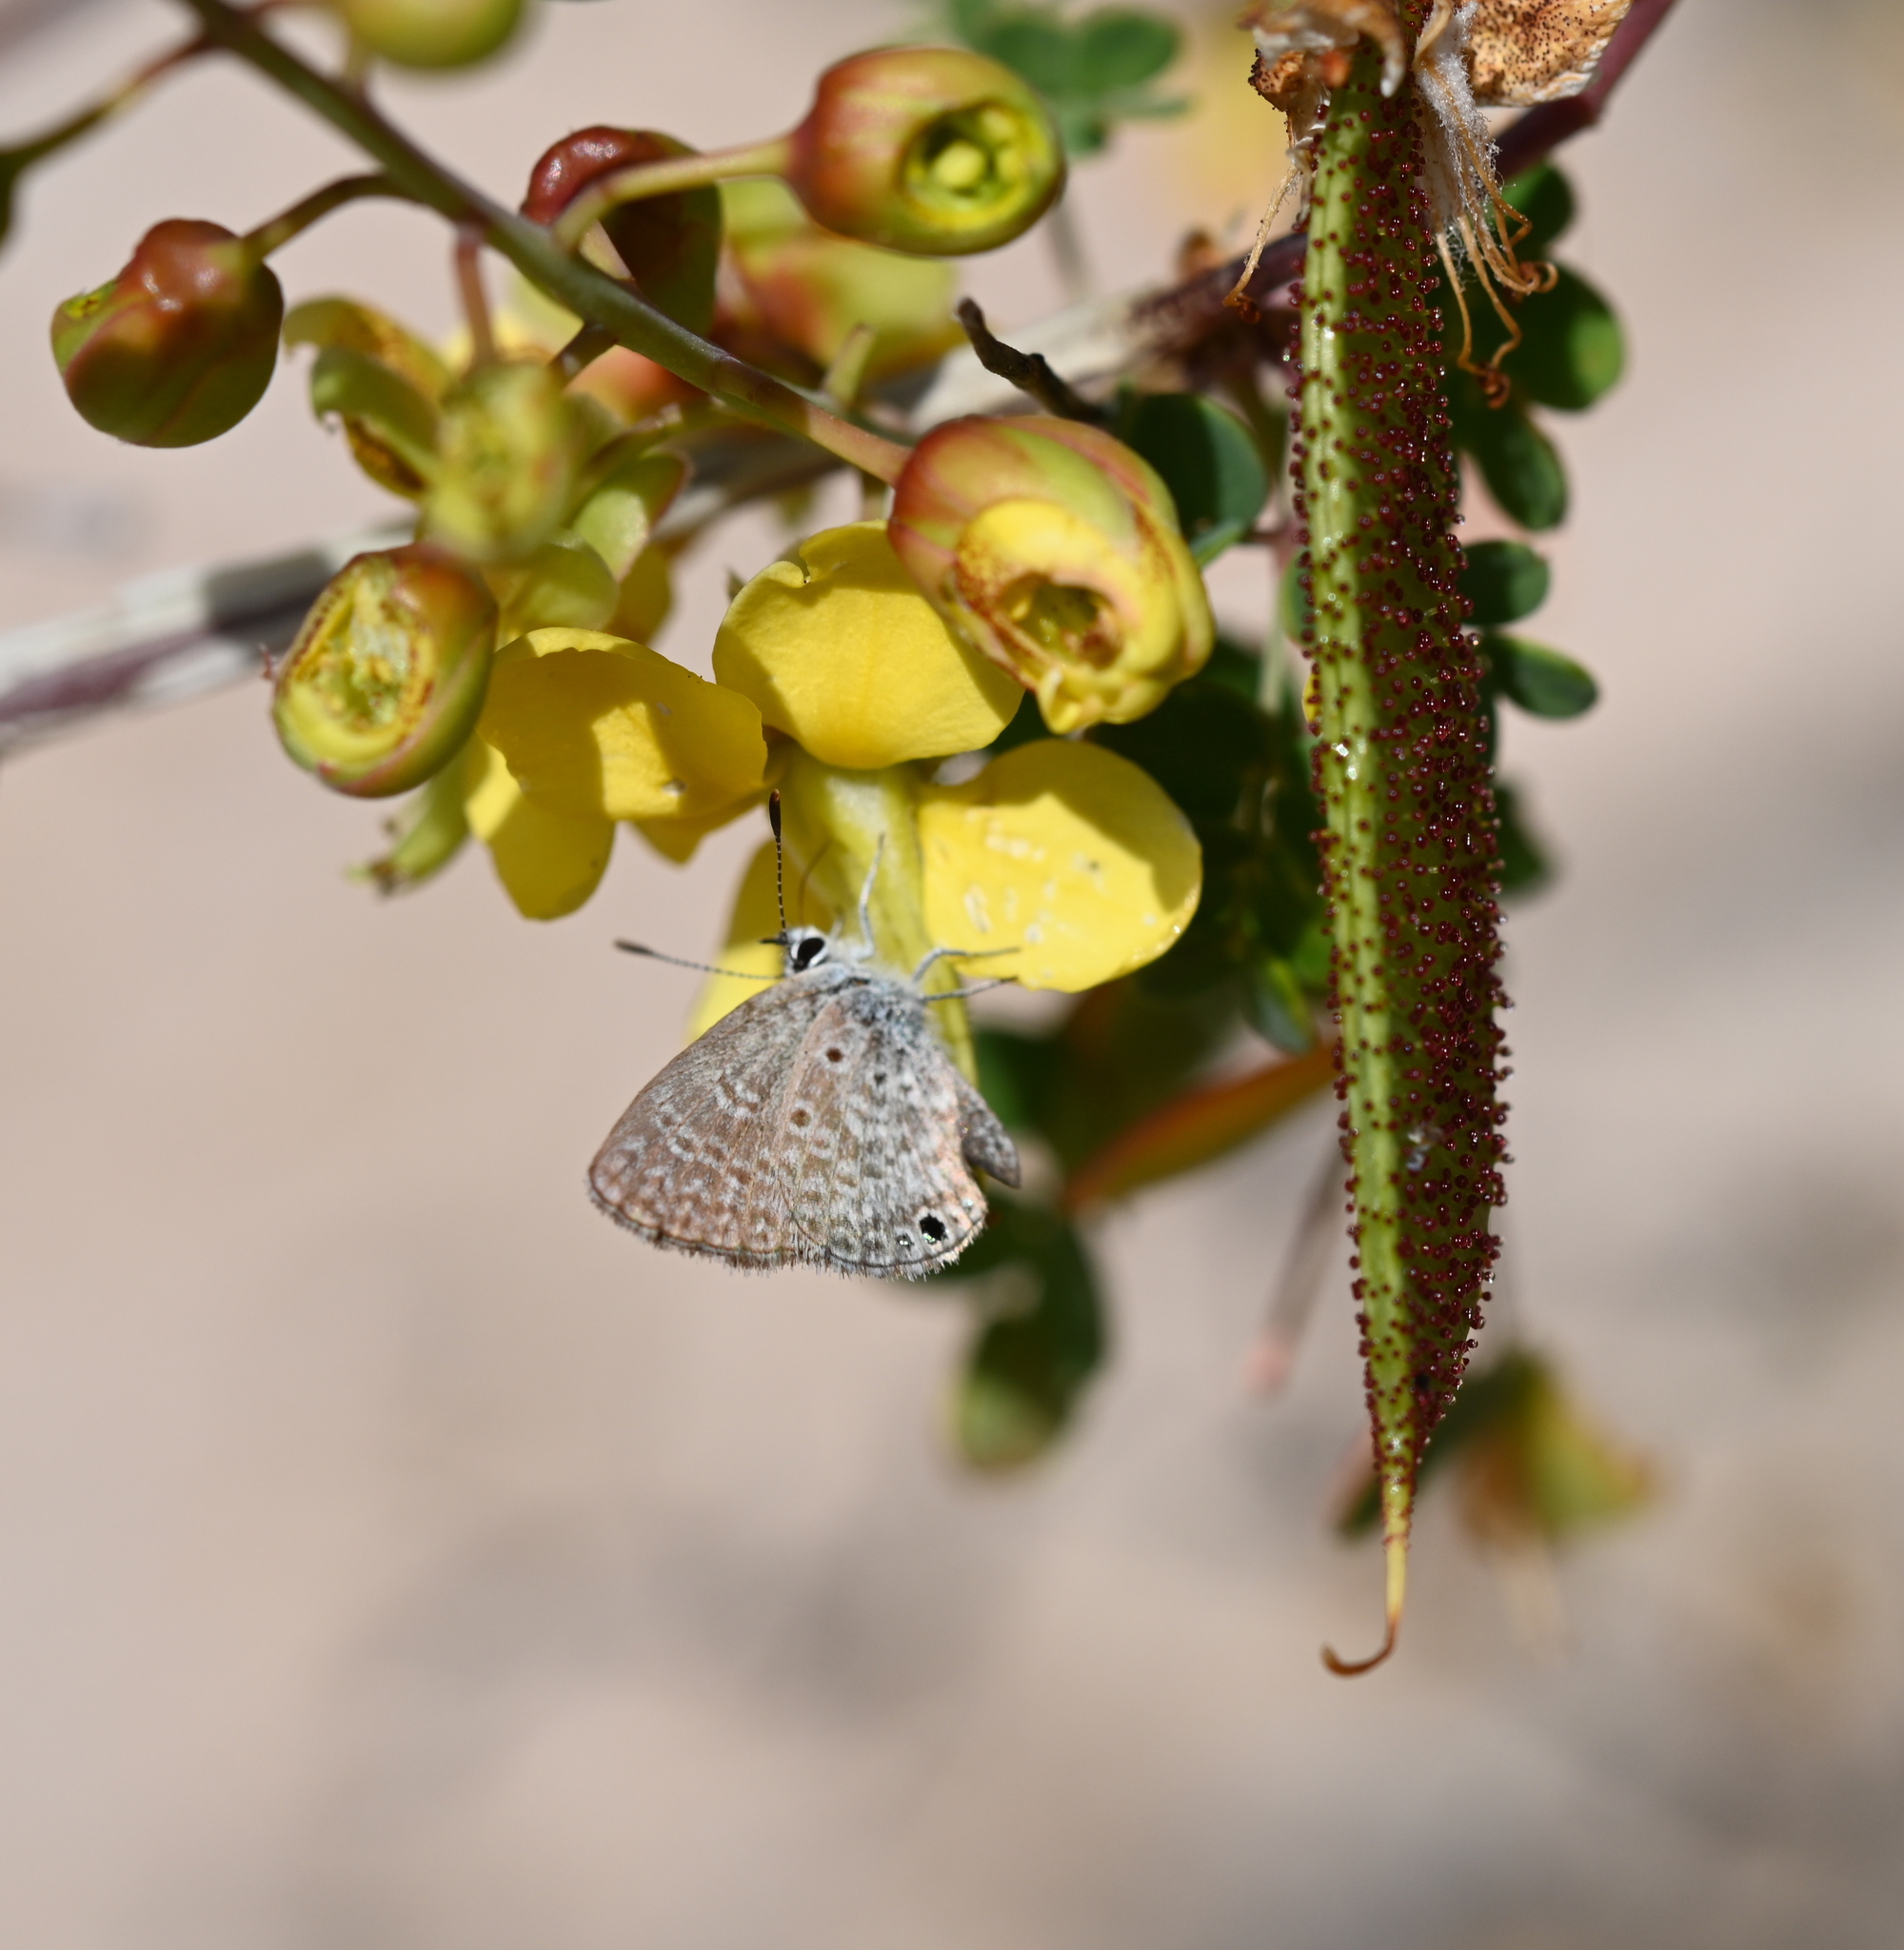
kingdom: Animalia
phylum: Arthropoda
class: Insecta
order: Lepidoptera
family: Lycaenidae
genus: Hemiargus
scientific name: Hemiargus ceraunus
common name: Ceraunus blue
